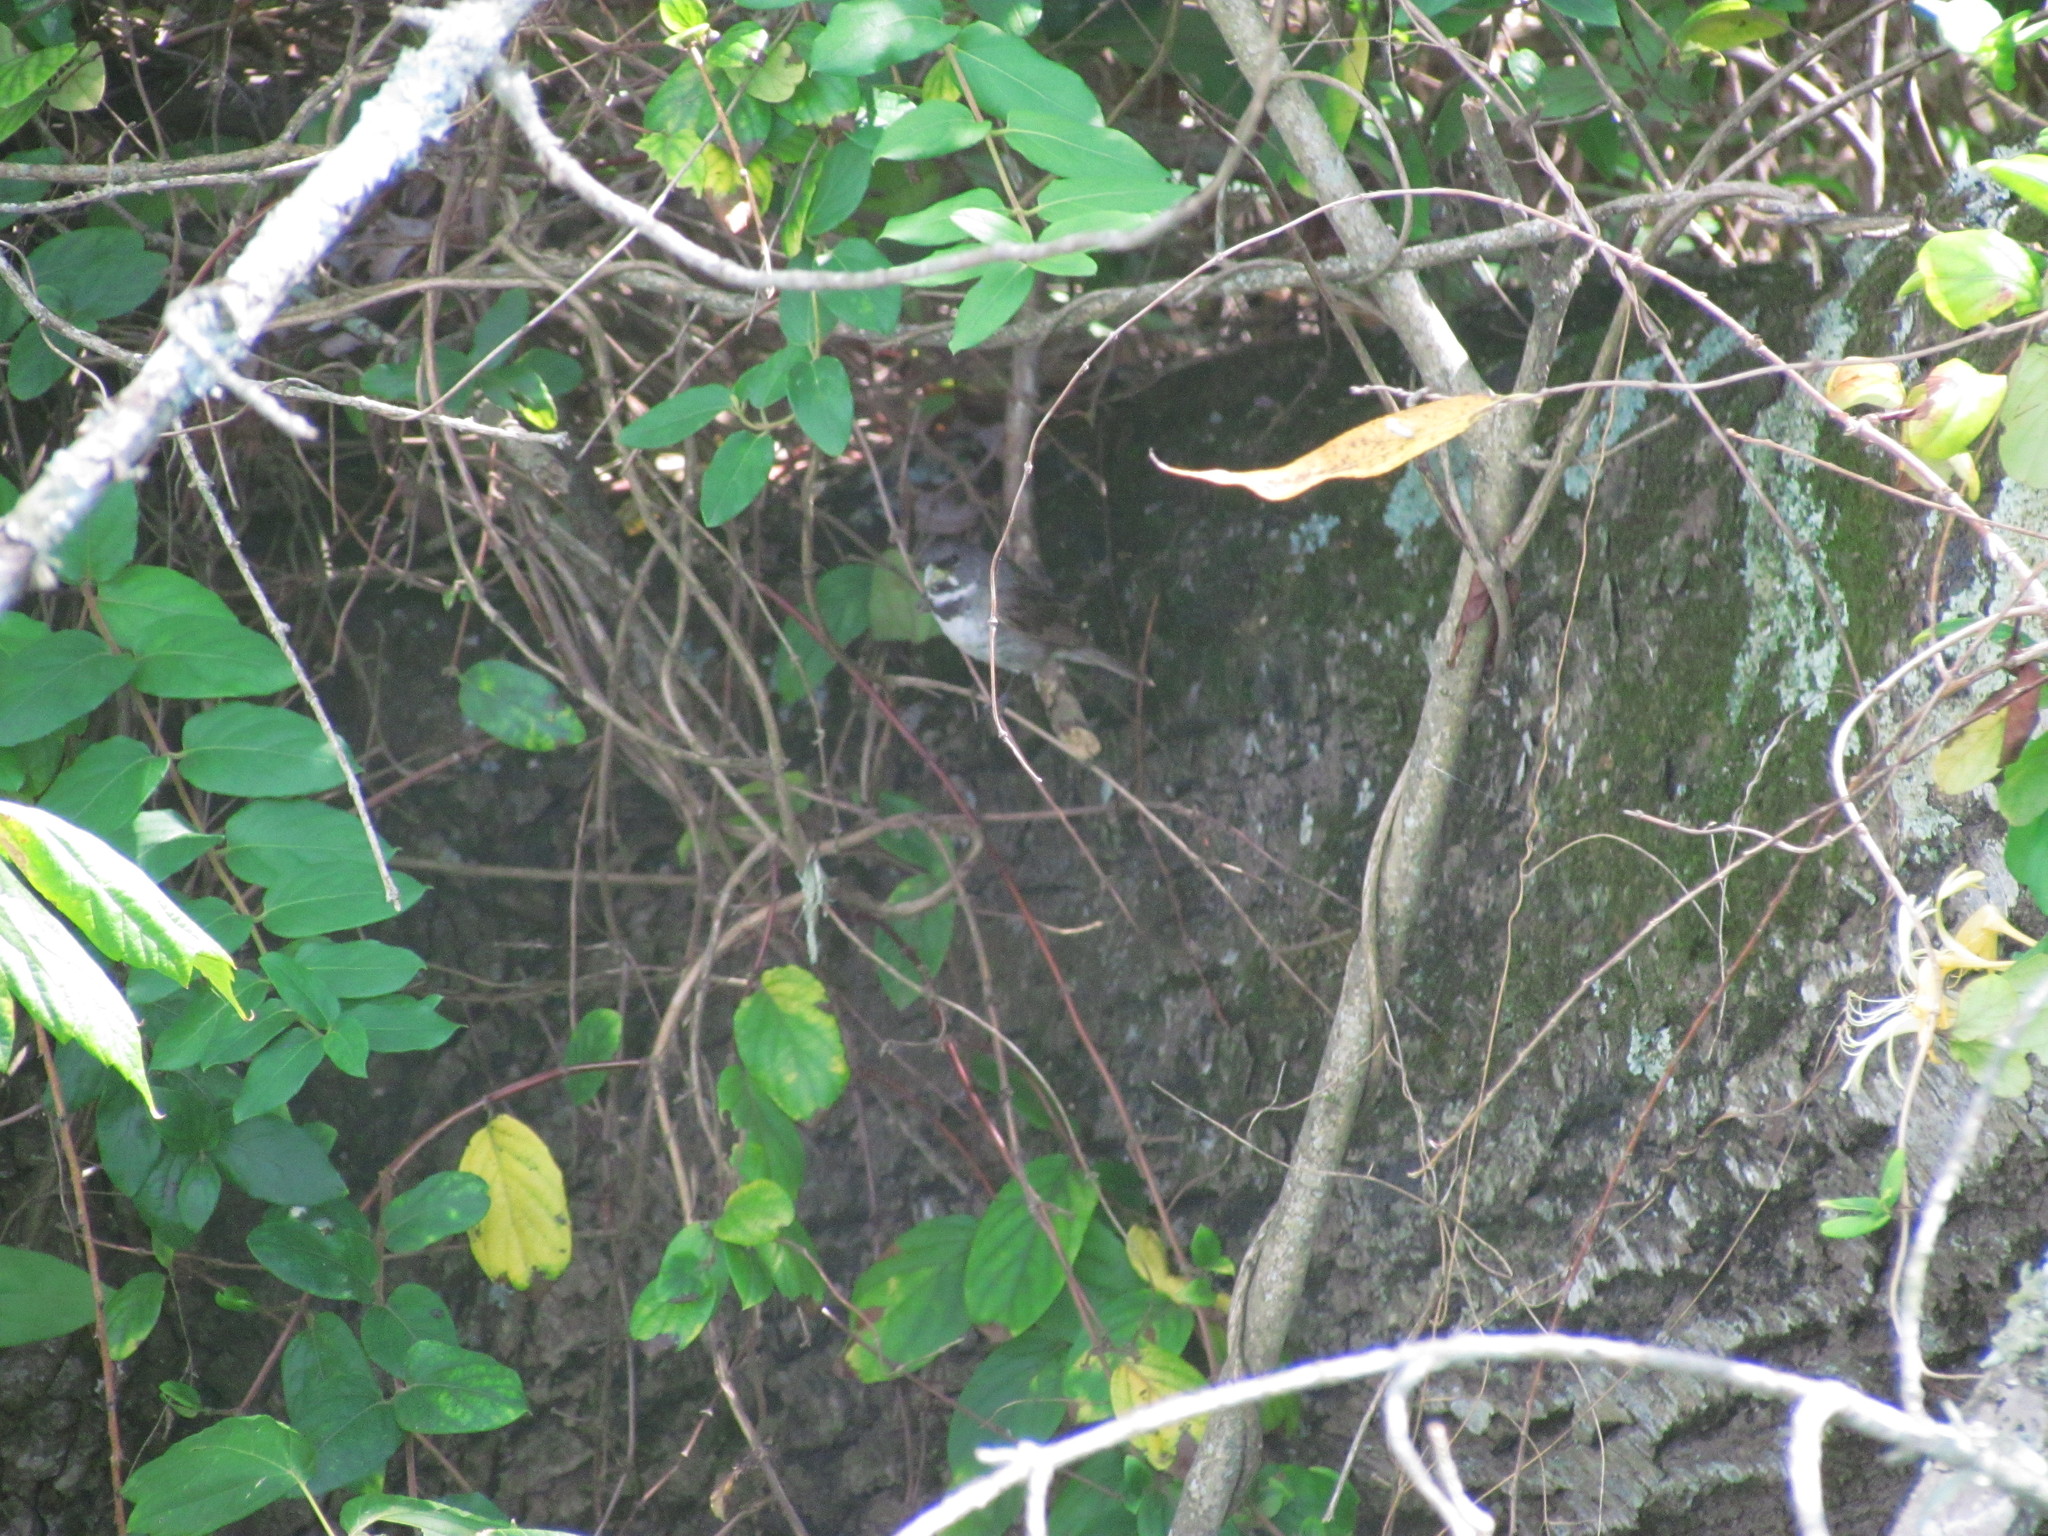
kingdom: Animalia
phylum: Chordata
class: Aves
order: Passeriformes
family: Thraupidae
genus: Sporophila
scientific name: Sporophila caerulescens
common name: Double-collared seedeater
